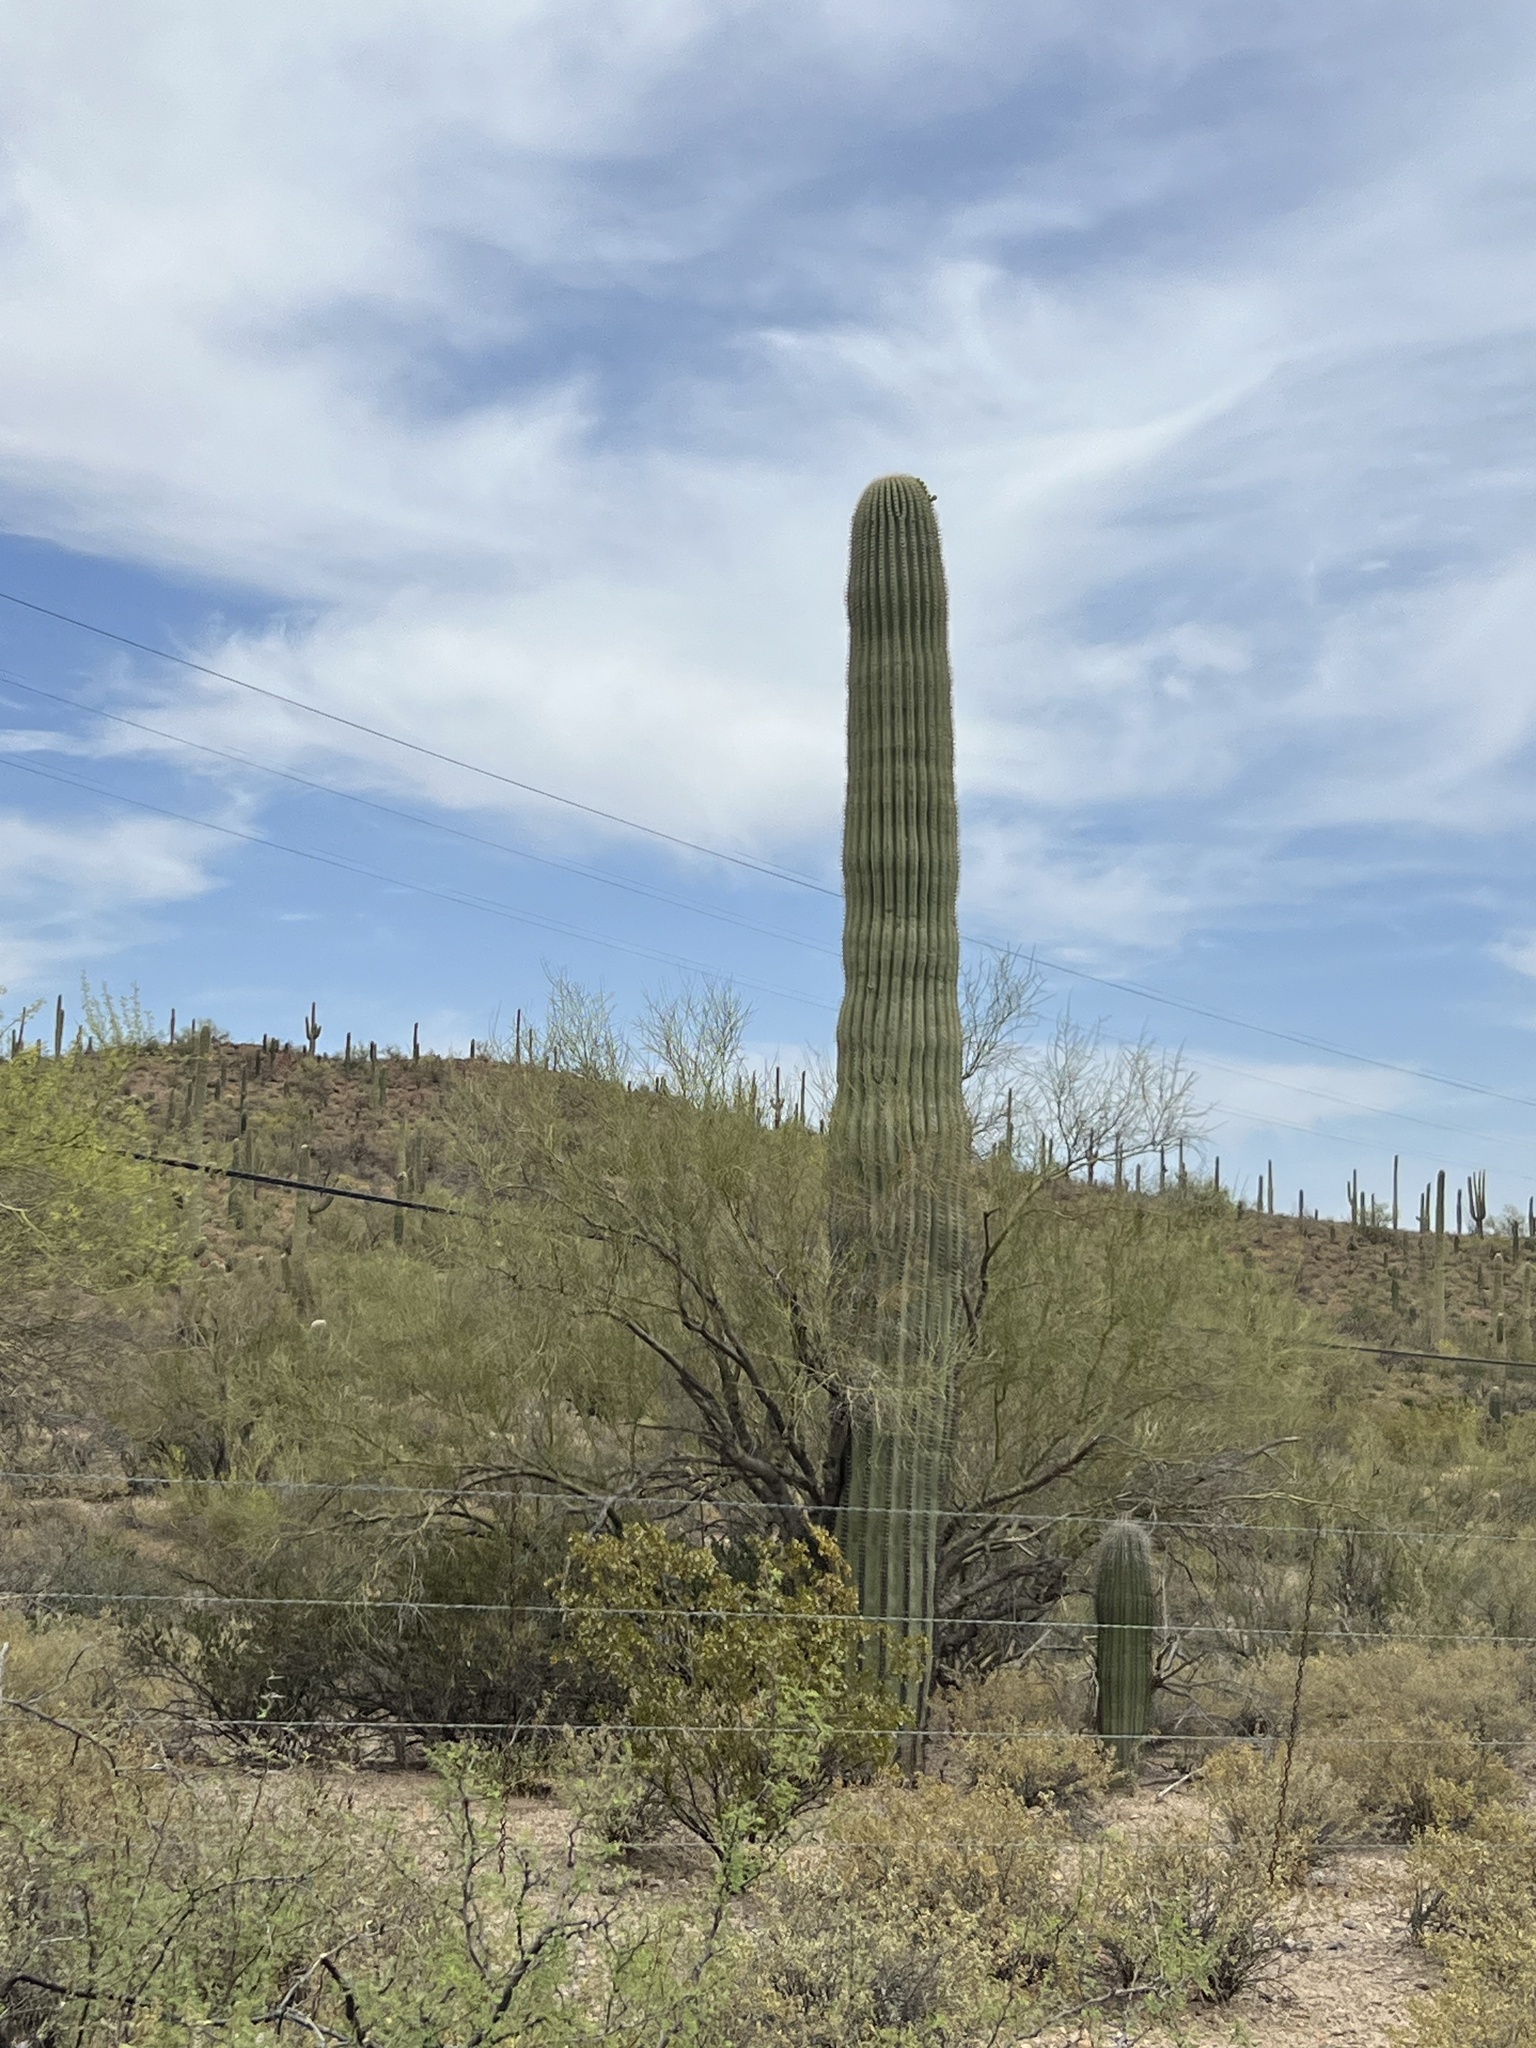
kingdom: Plantae
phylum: Tracheophyta
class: Magnoliopsida
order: Caryophyllales
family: Cactaceae
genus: Carnegiea
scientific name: Carnegiea gigantea
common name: Saguaro
